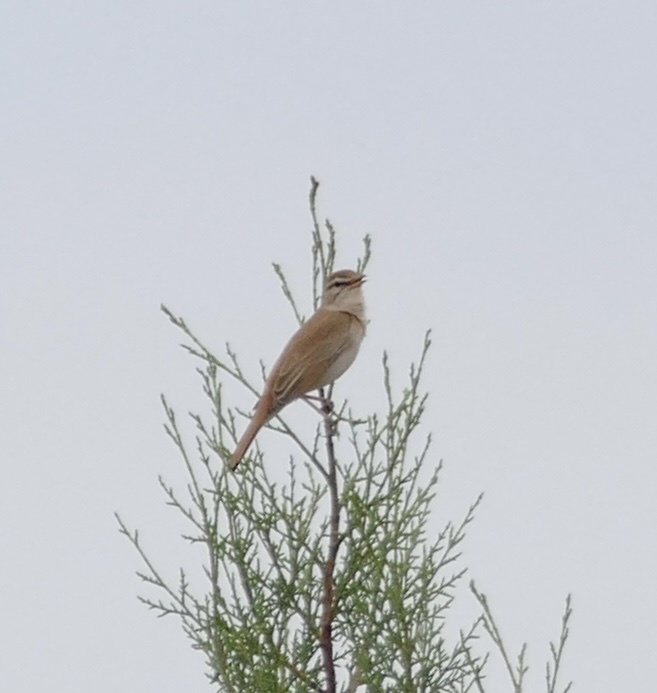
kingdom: Animalia
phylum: Chordata
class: Aves
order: Passeriformes
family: Muscicapidae
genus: Erythropygia
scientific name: Erythropygia galactotes
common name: Rufous-tailed scrub robin
